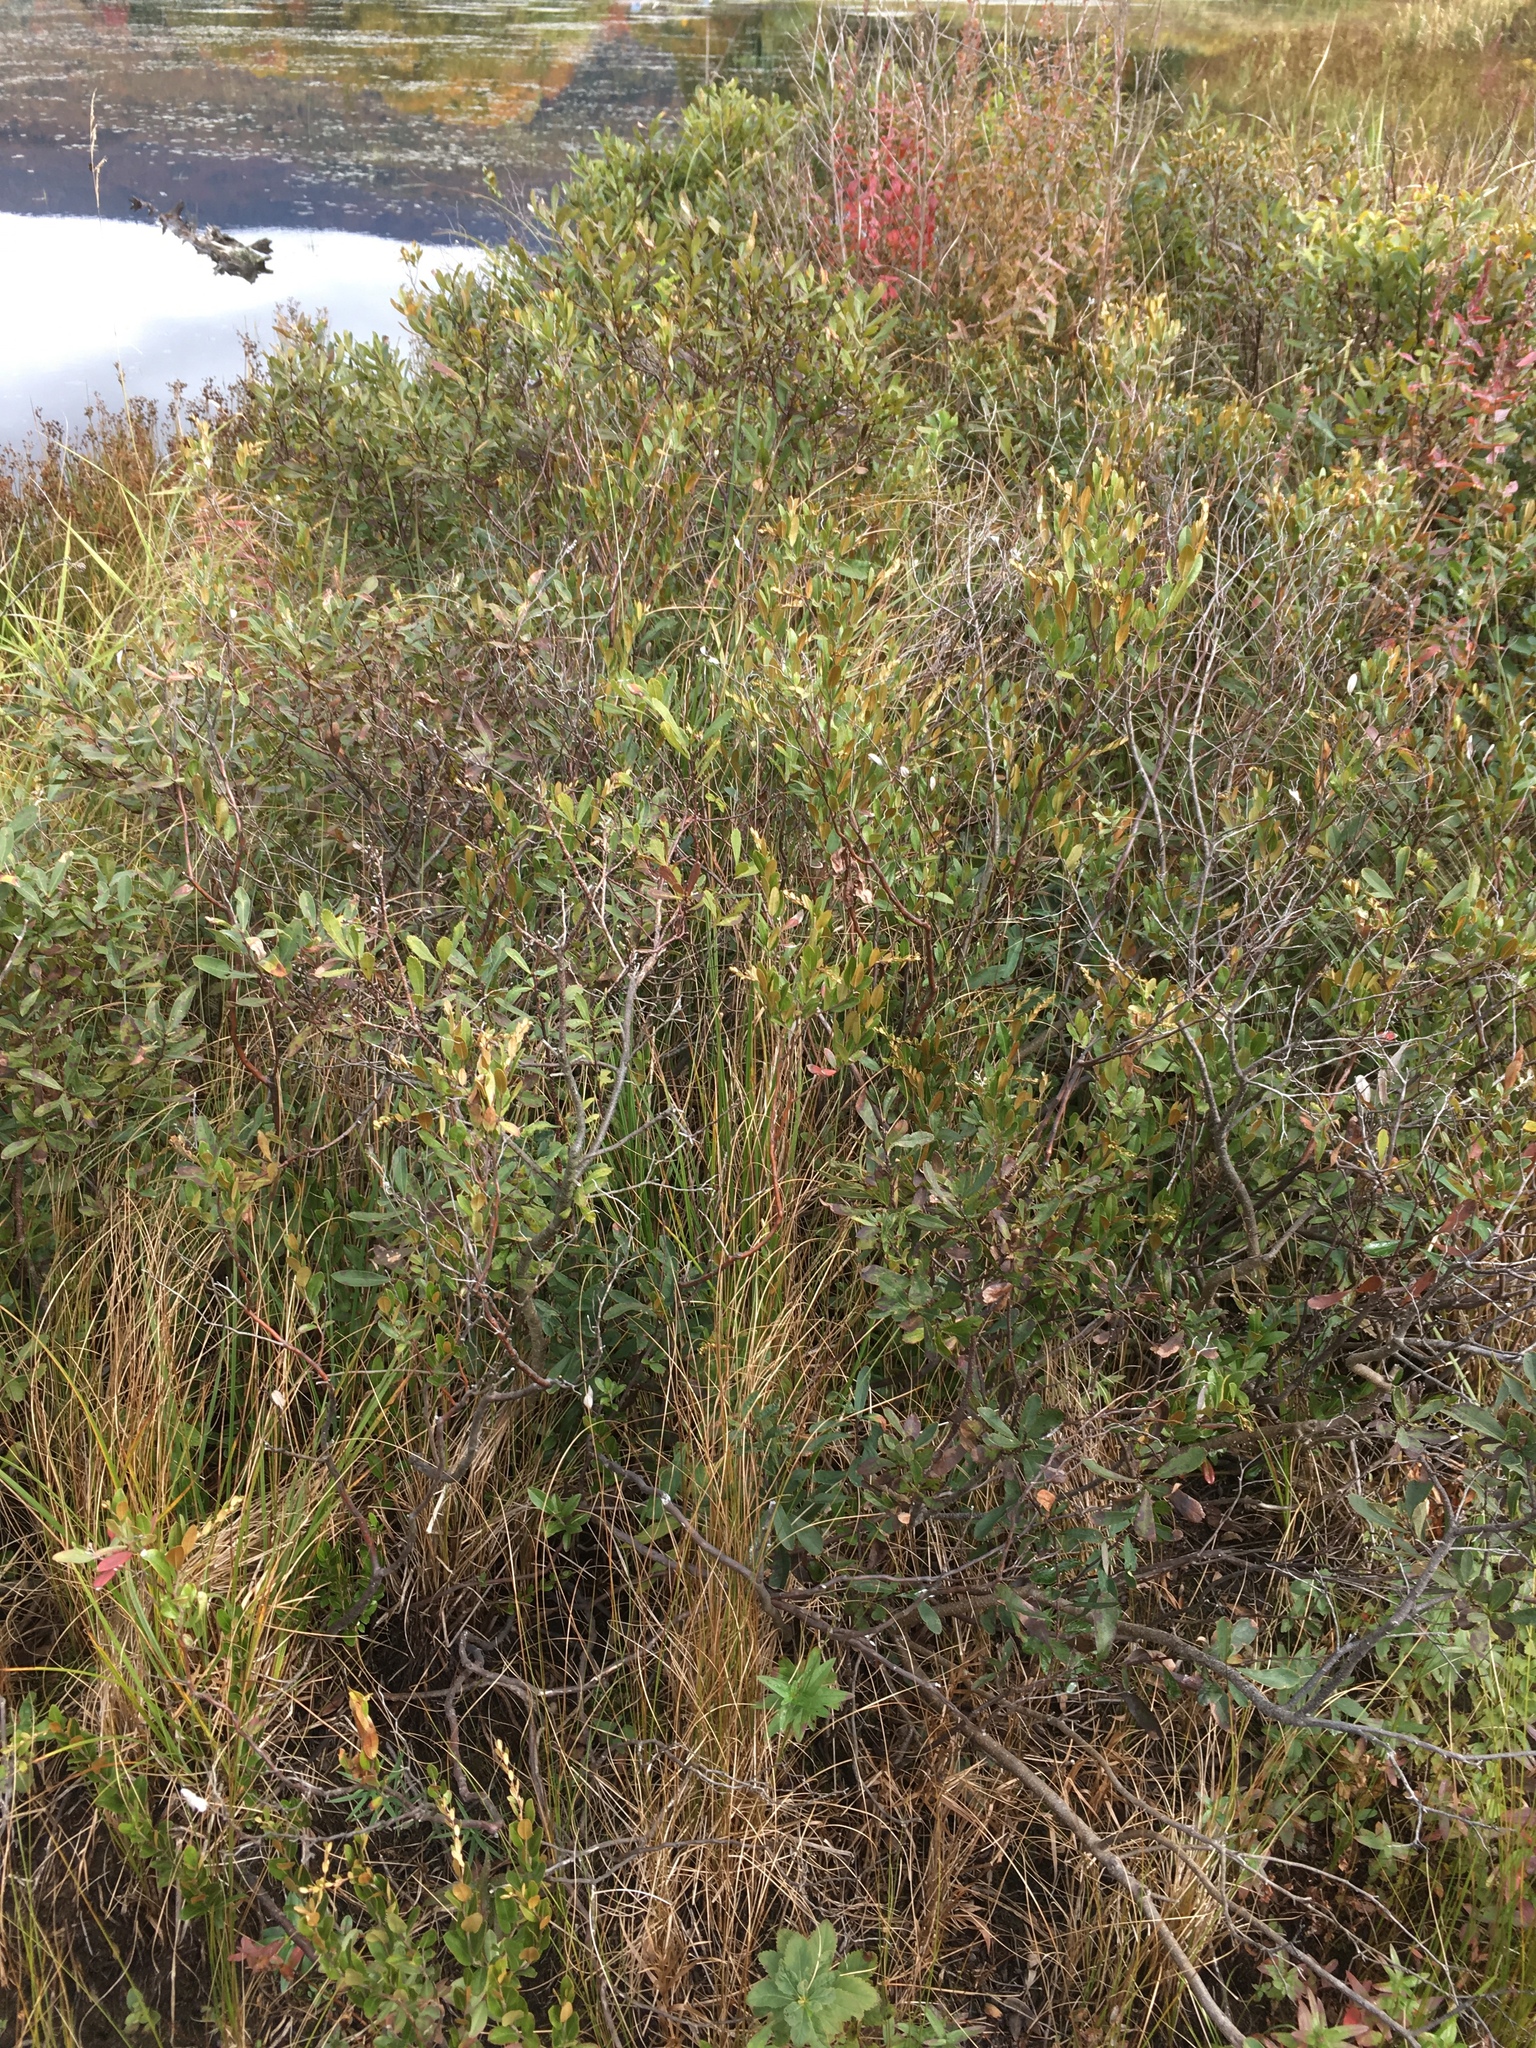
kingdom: Plantae
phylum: Tracheophyta
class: Magnoliopsida
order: Fagales
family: Myricaceae
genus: Myrica
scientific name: Myrica gale
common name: Sweet gale
